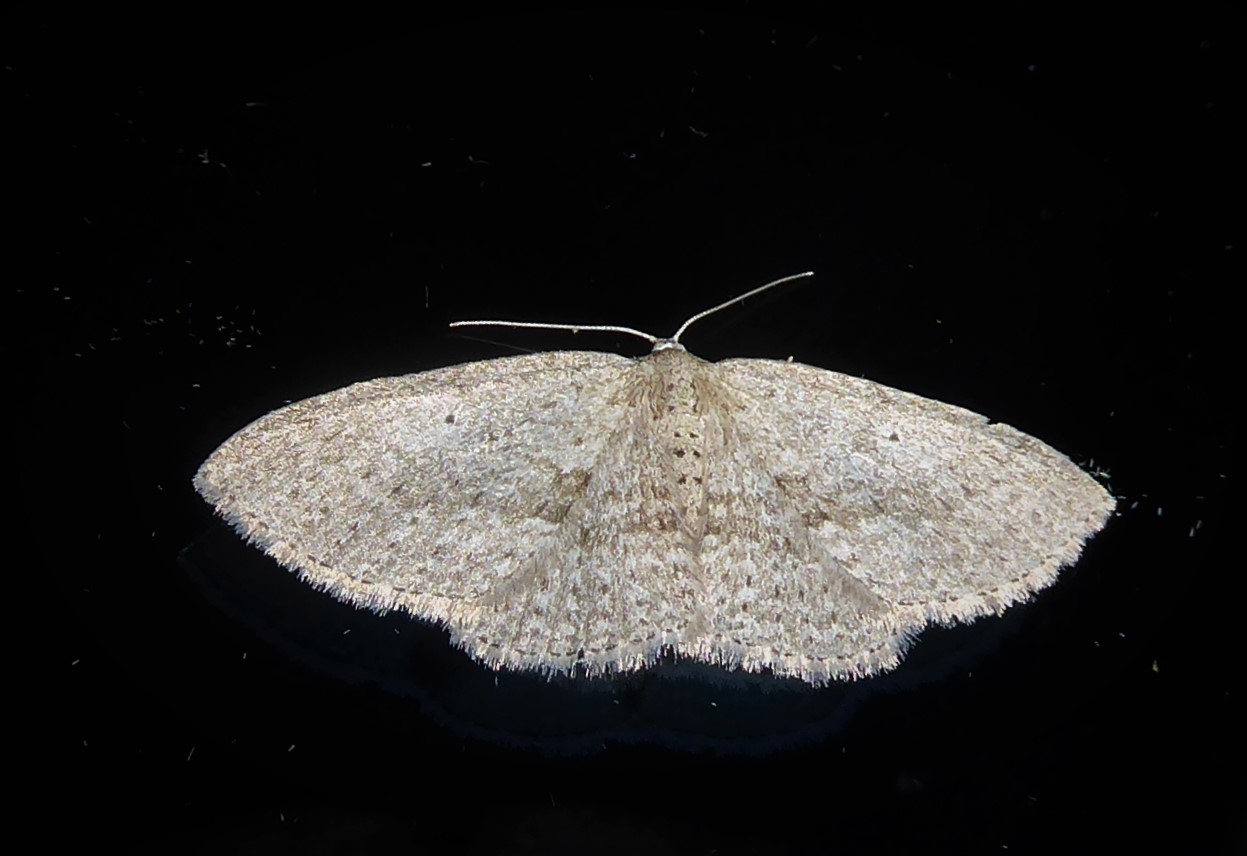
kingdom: Animalia
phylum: Arthropoda
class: Insecta
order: Lepidoptera
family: Geometridae
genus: Poecilasthena
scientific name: Poecilasthena schistaria
